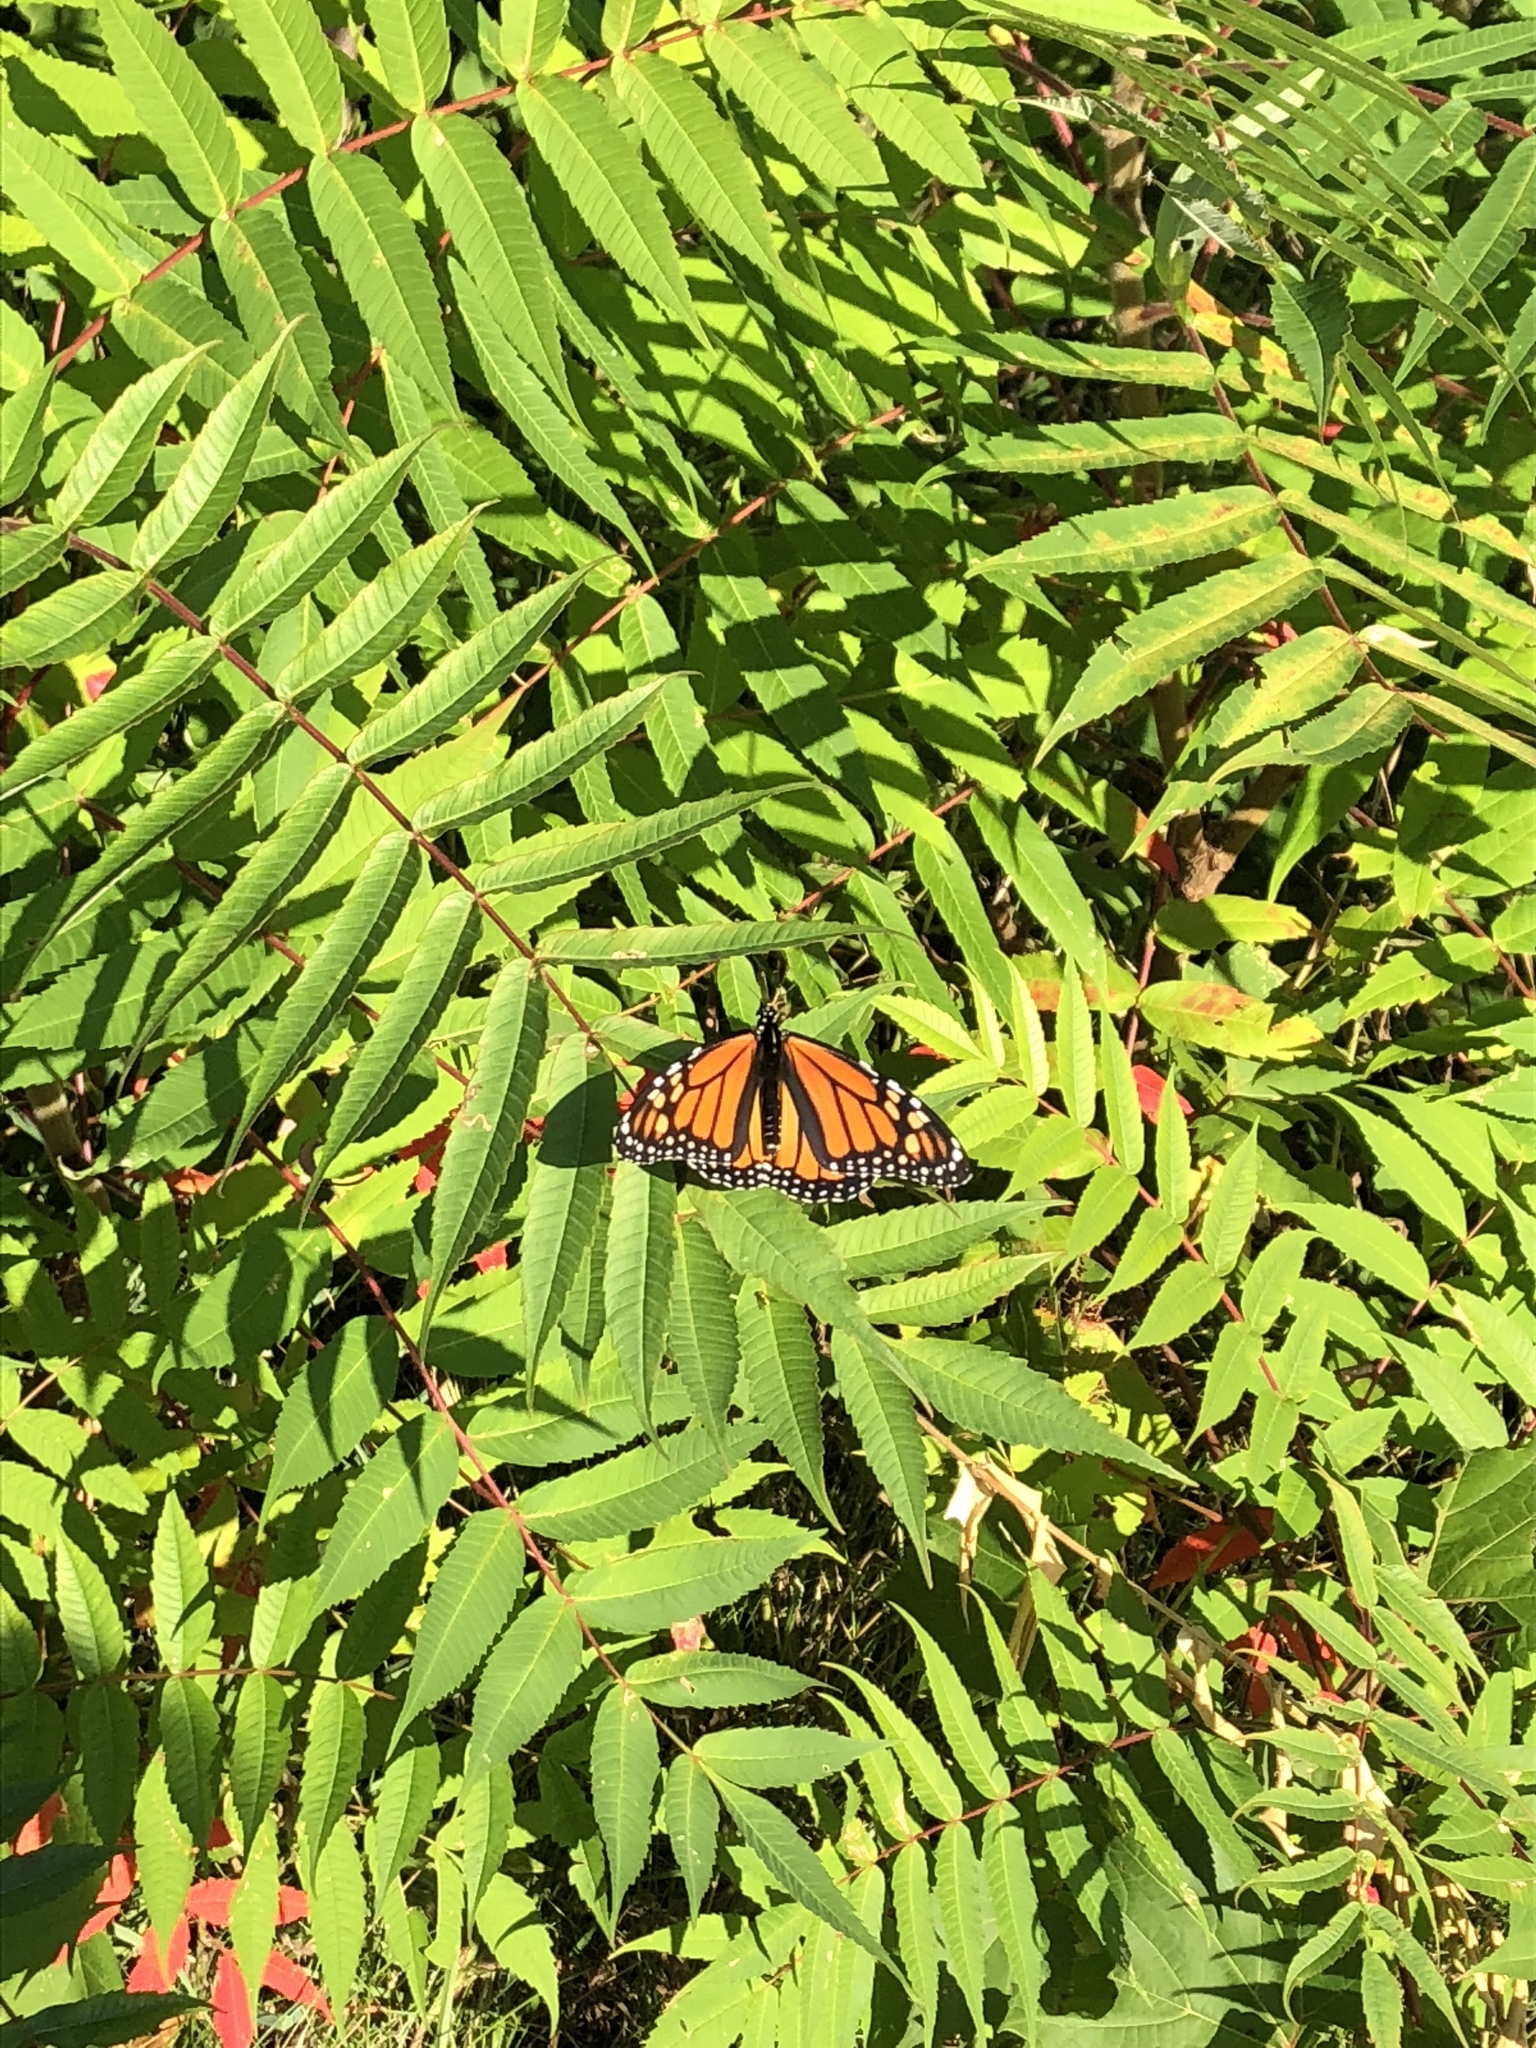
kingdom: Animalia
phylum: Arthropoda
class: Insecta
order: Lepidoptera
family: Nymphalidae
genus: Danaus
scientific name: Danaus plexippus
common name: Monarch
